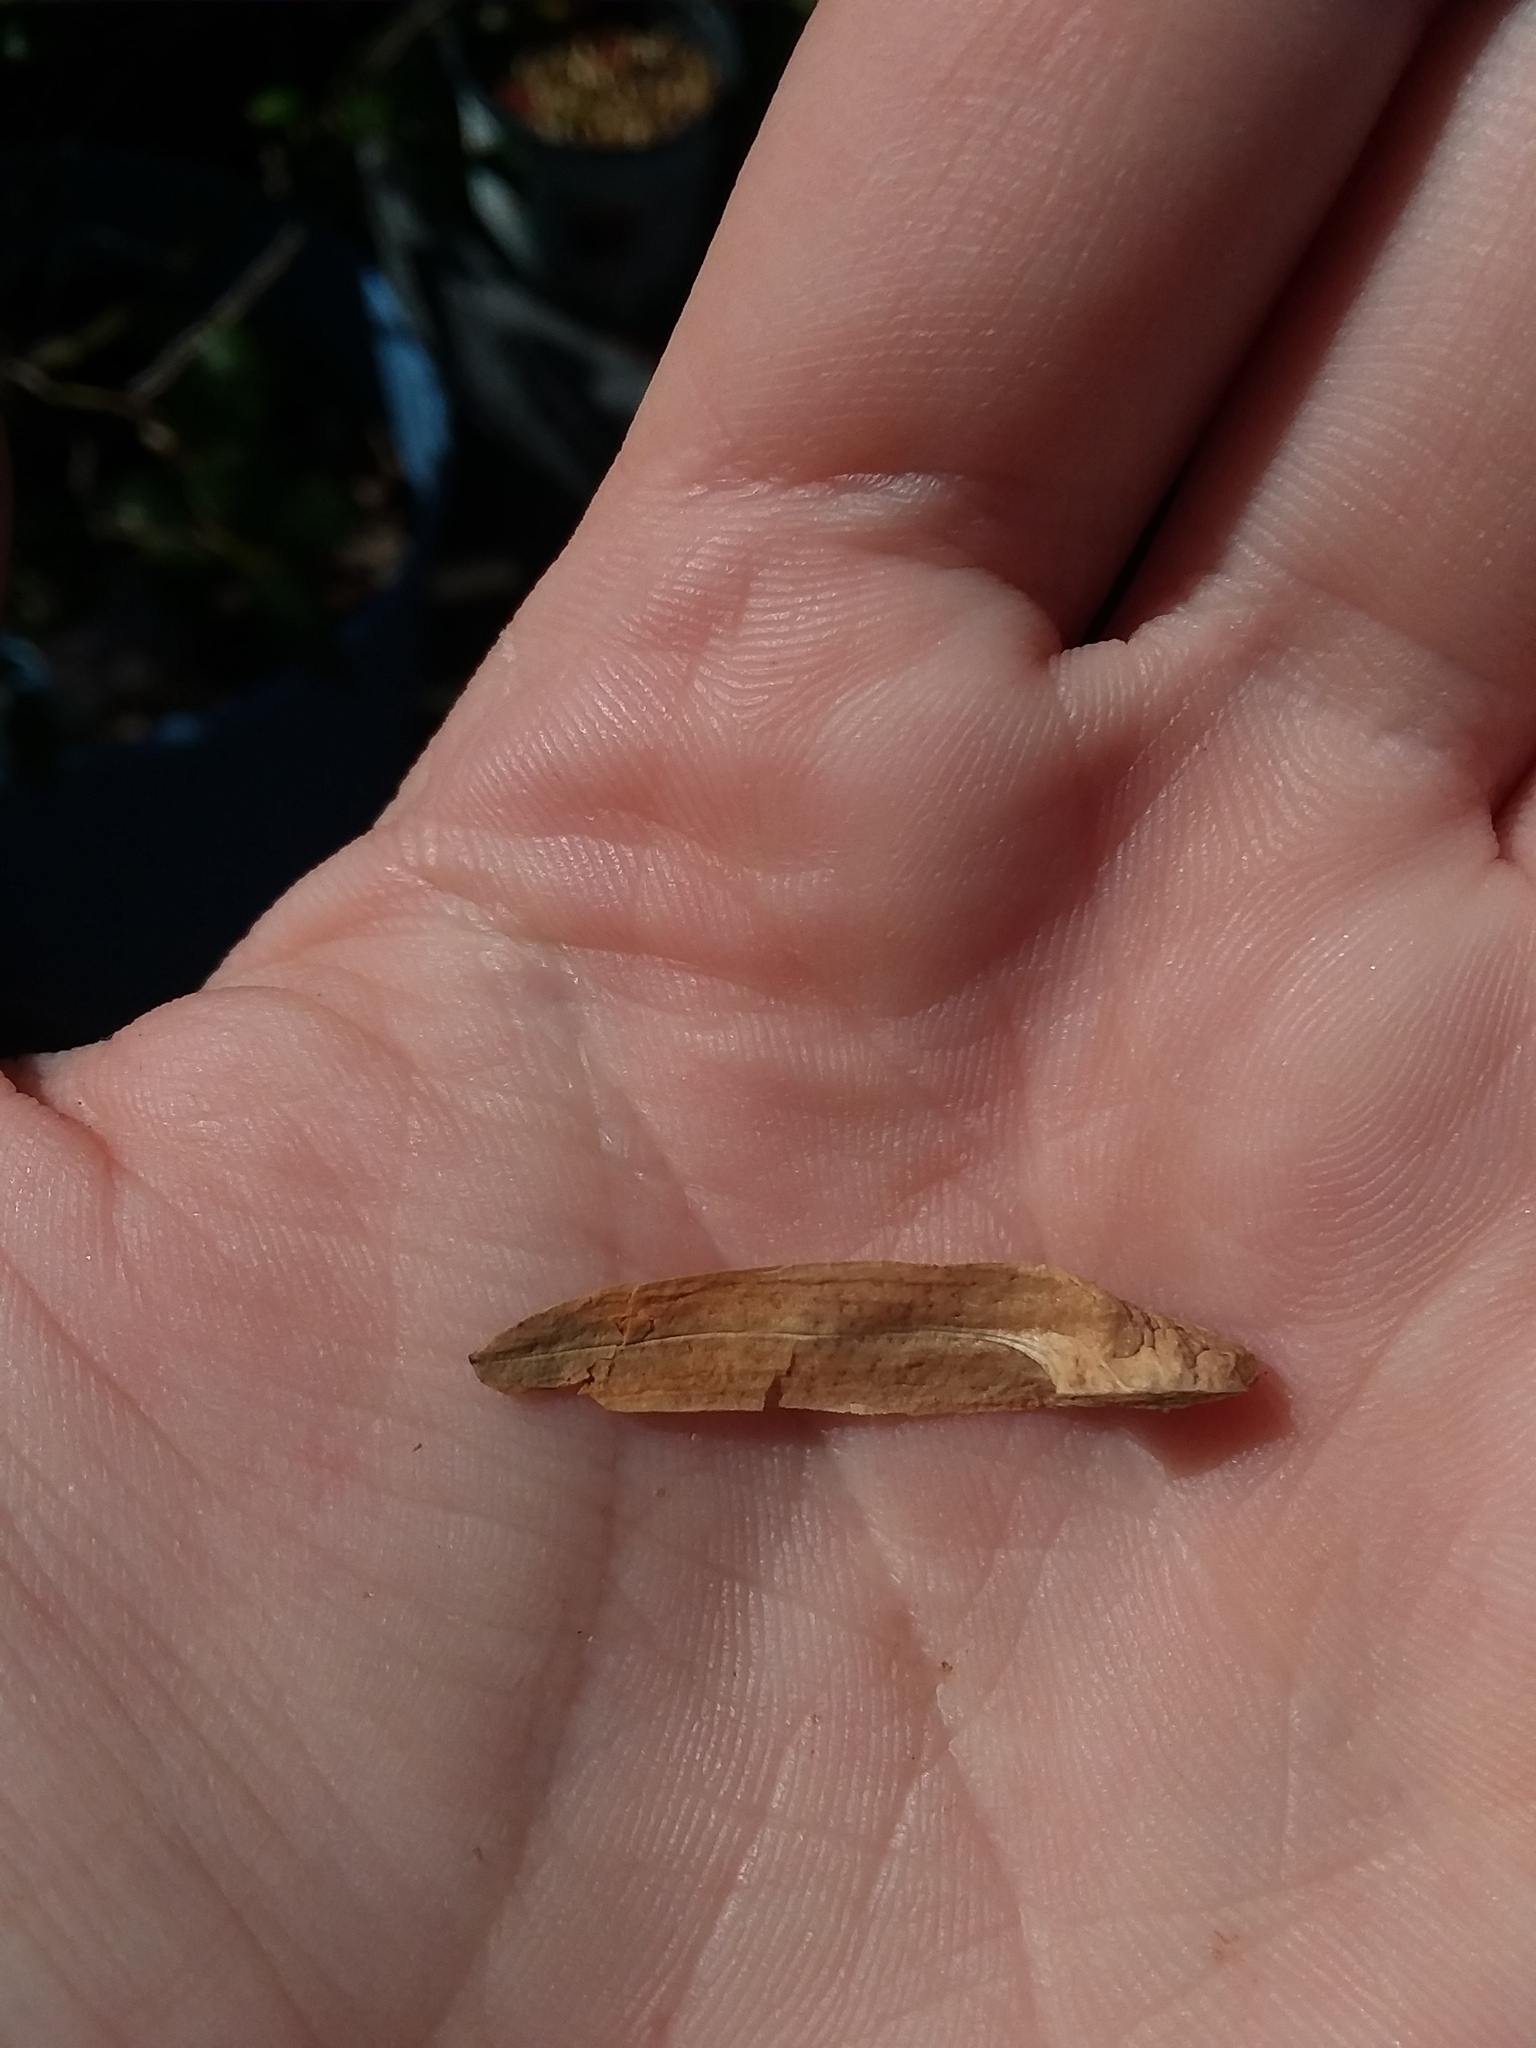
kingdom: Plantae
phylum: Tracheophyta
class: Magnoliopsida
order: Magnoliales
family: Magnoliaceae
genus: Liriodendron
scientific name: Liriodendron tulipifera
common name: Tulip tree
